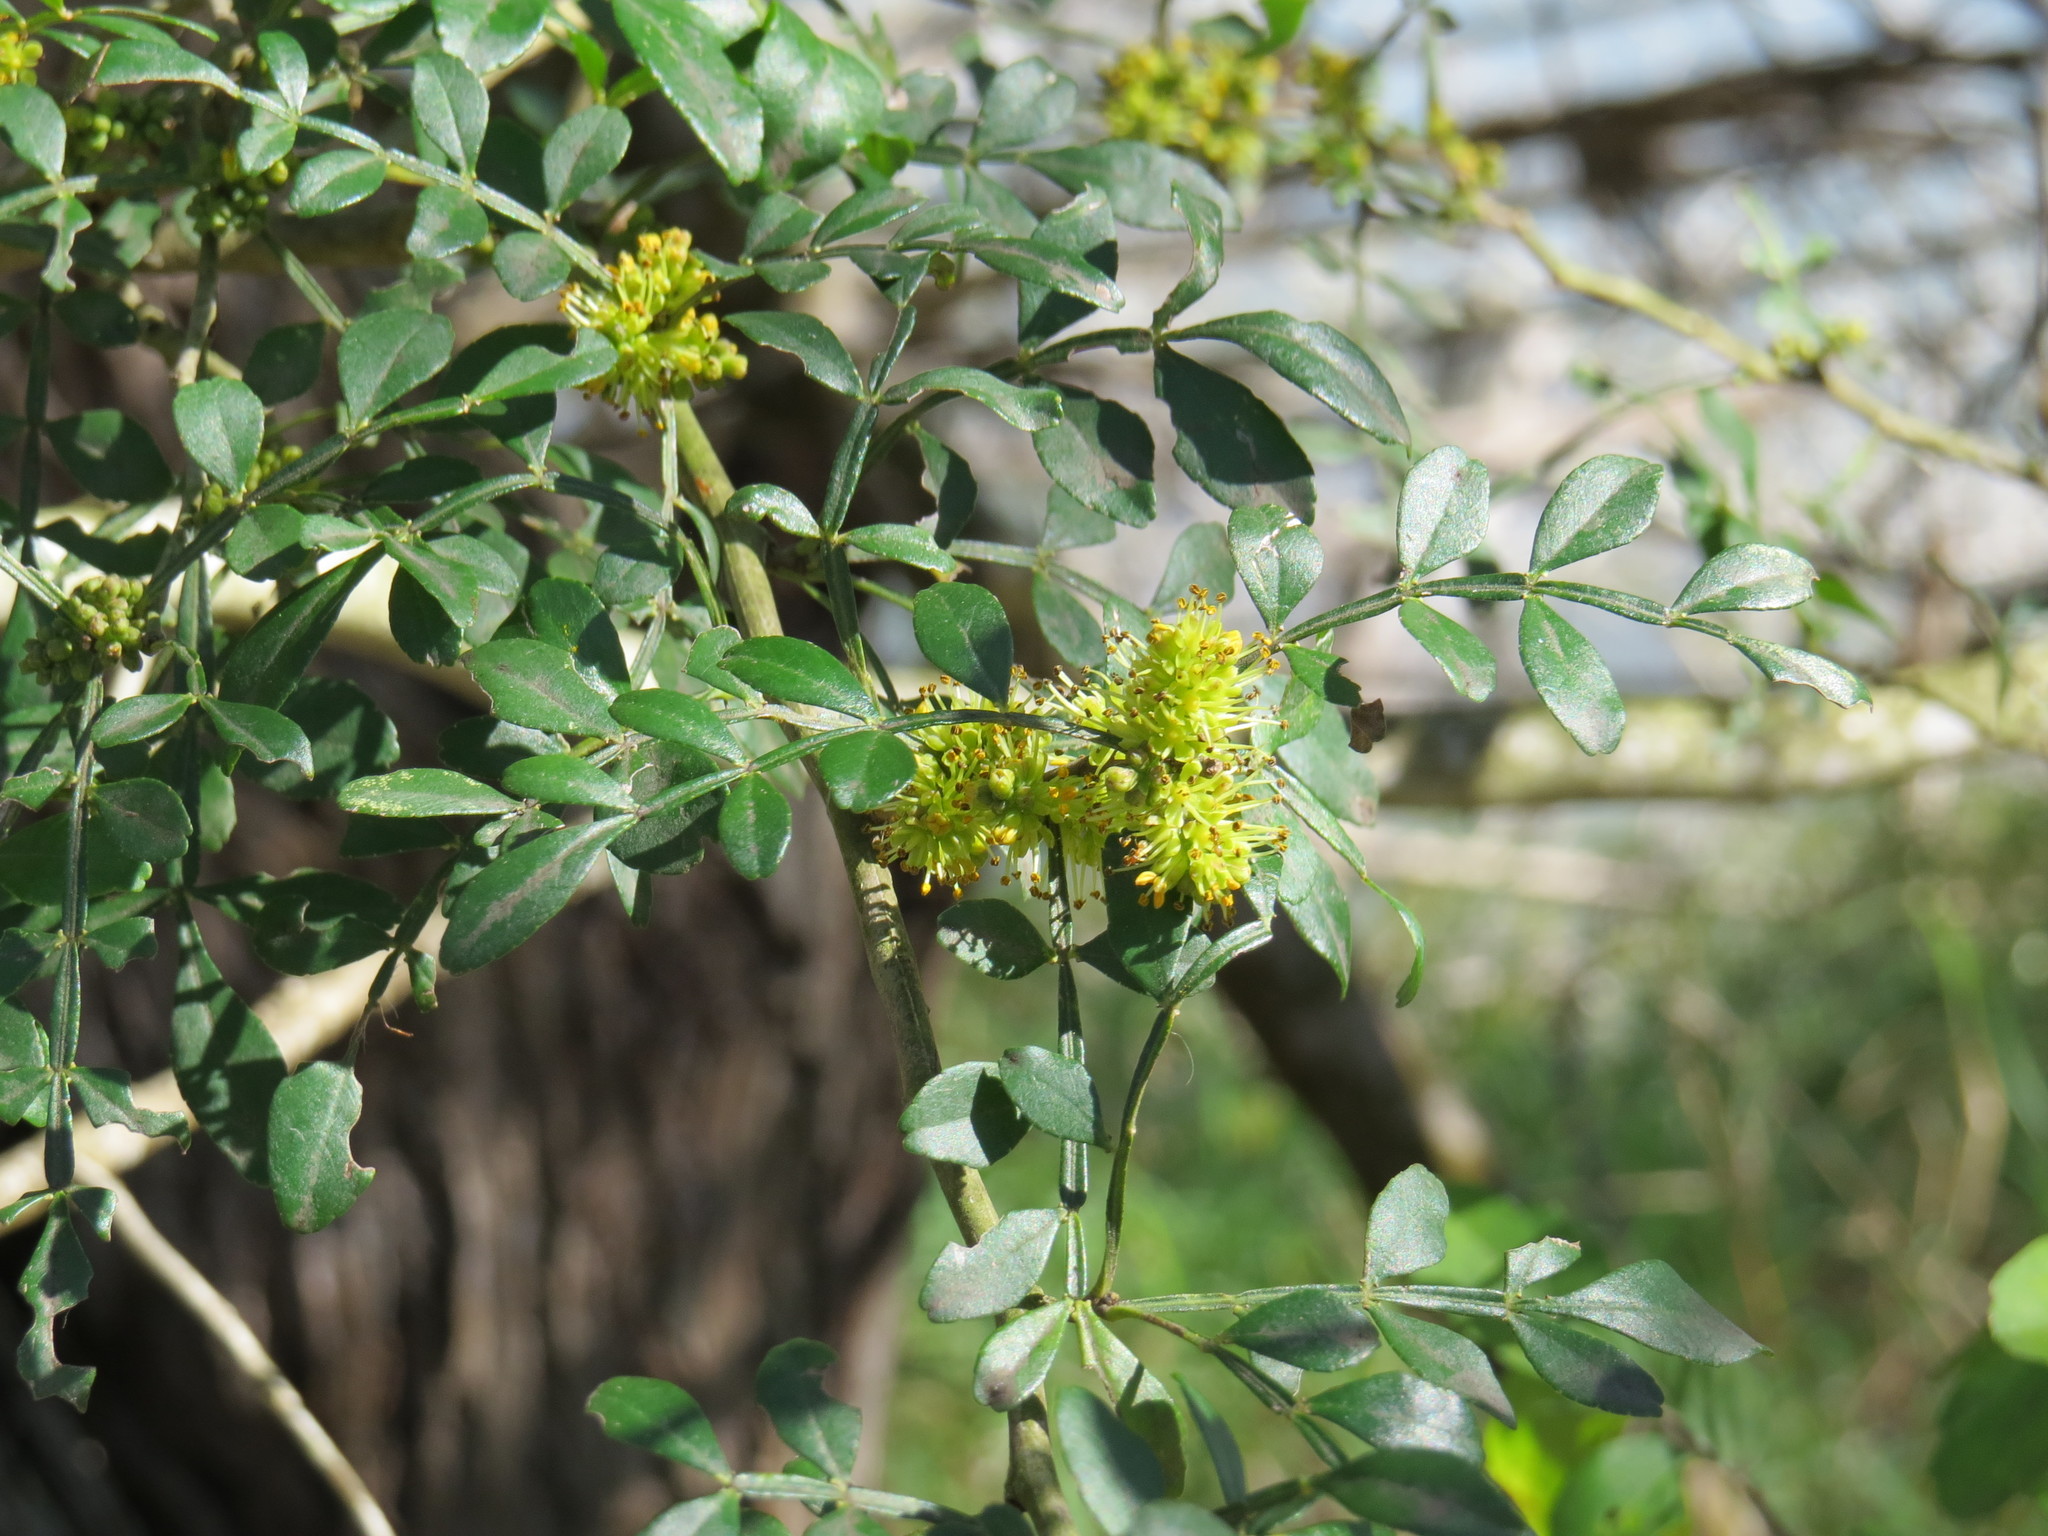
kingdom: Plantae
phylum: Tracheophyta
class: Magnoliopsida
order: Sapindales
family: Rutaceae
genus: Zanthoxylum
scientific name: Zanthoxylum fagara
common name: Lime prickly-ash
